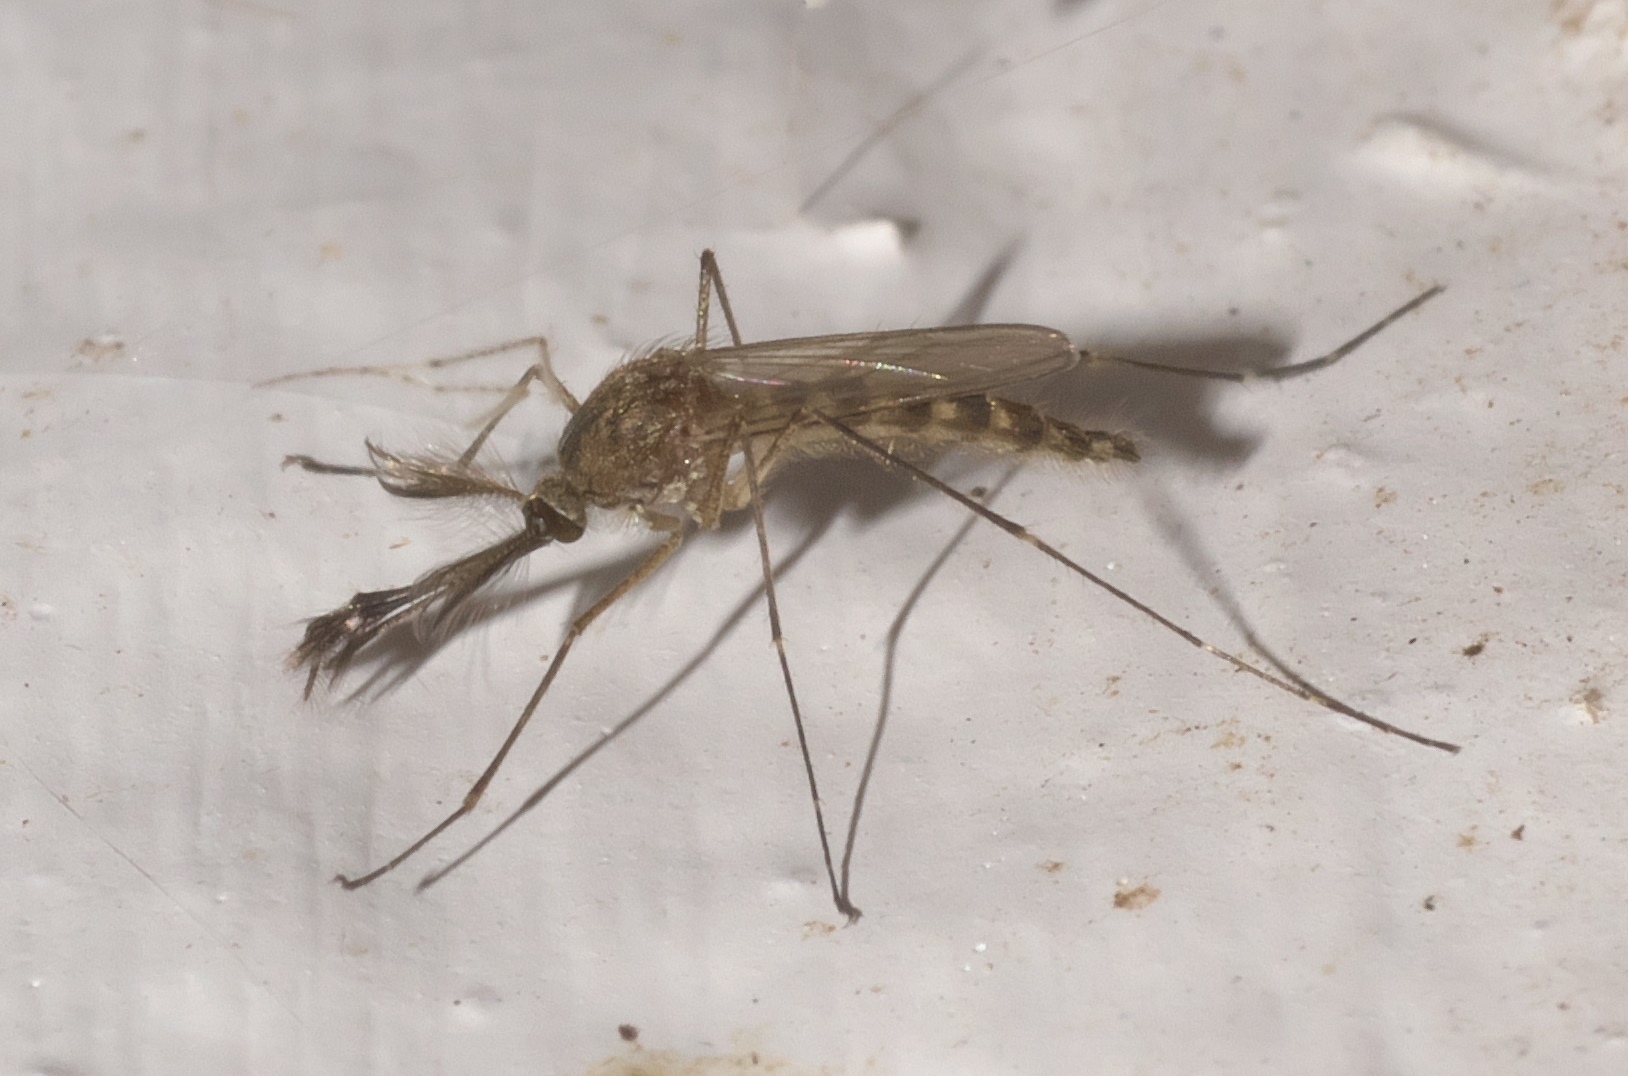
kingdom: Animalia
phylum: Arthropoda
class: Insecta
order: Diptera
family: Culicidae
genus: Aedes
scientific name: Aedes vexans
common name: Inland floodwater mosquito
